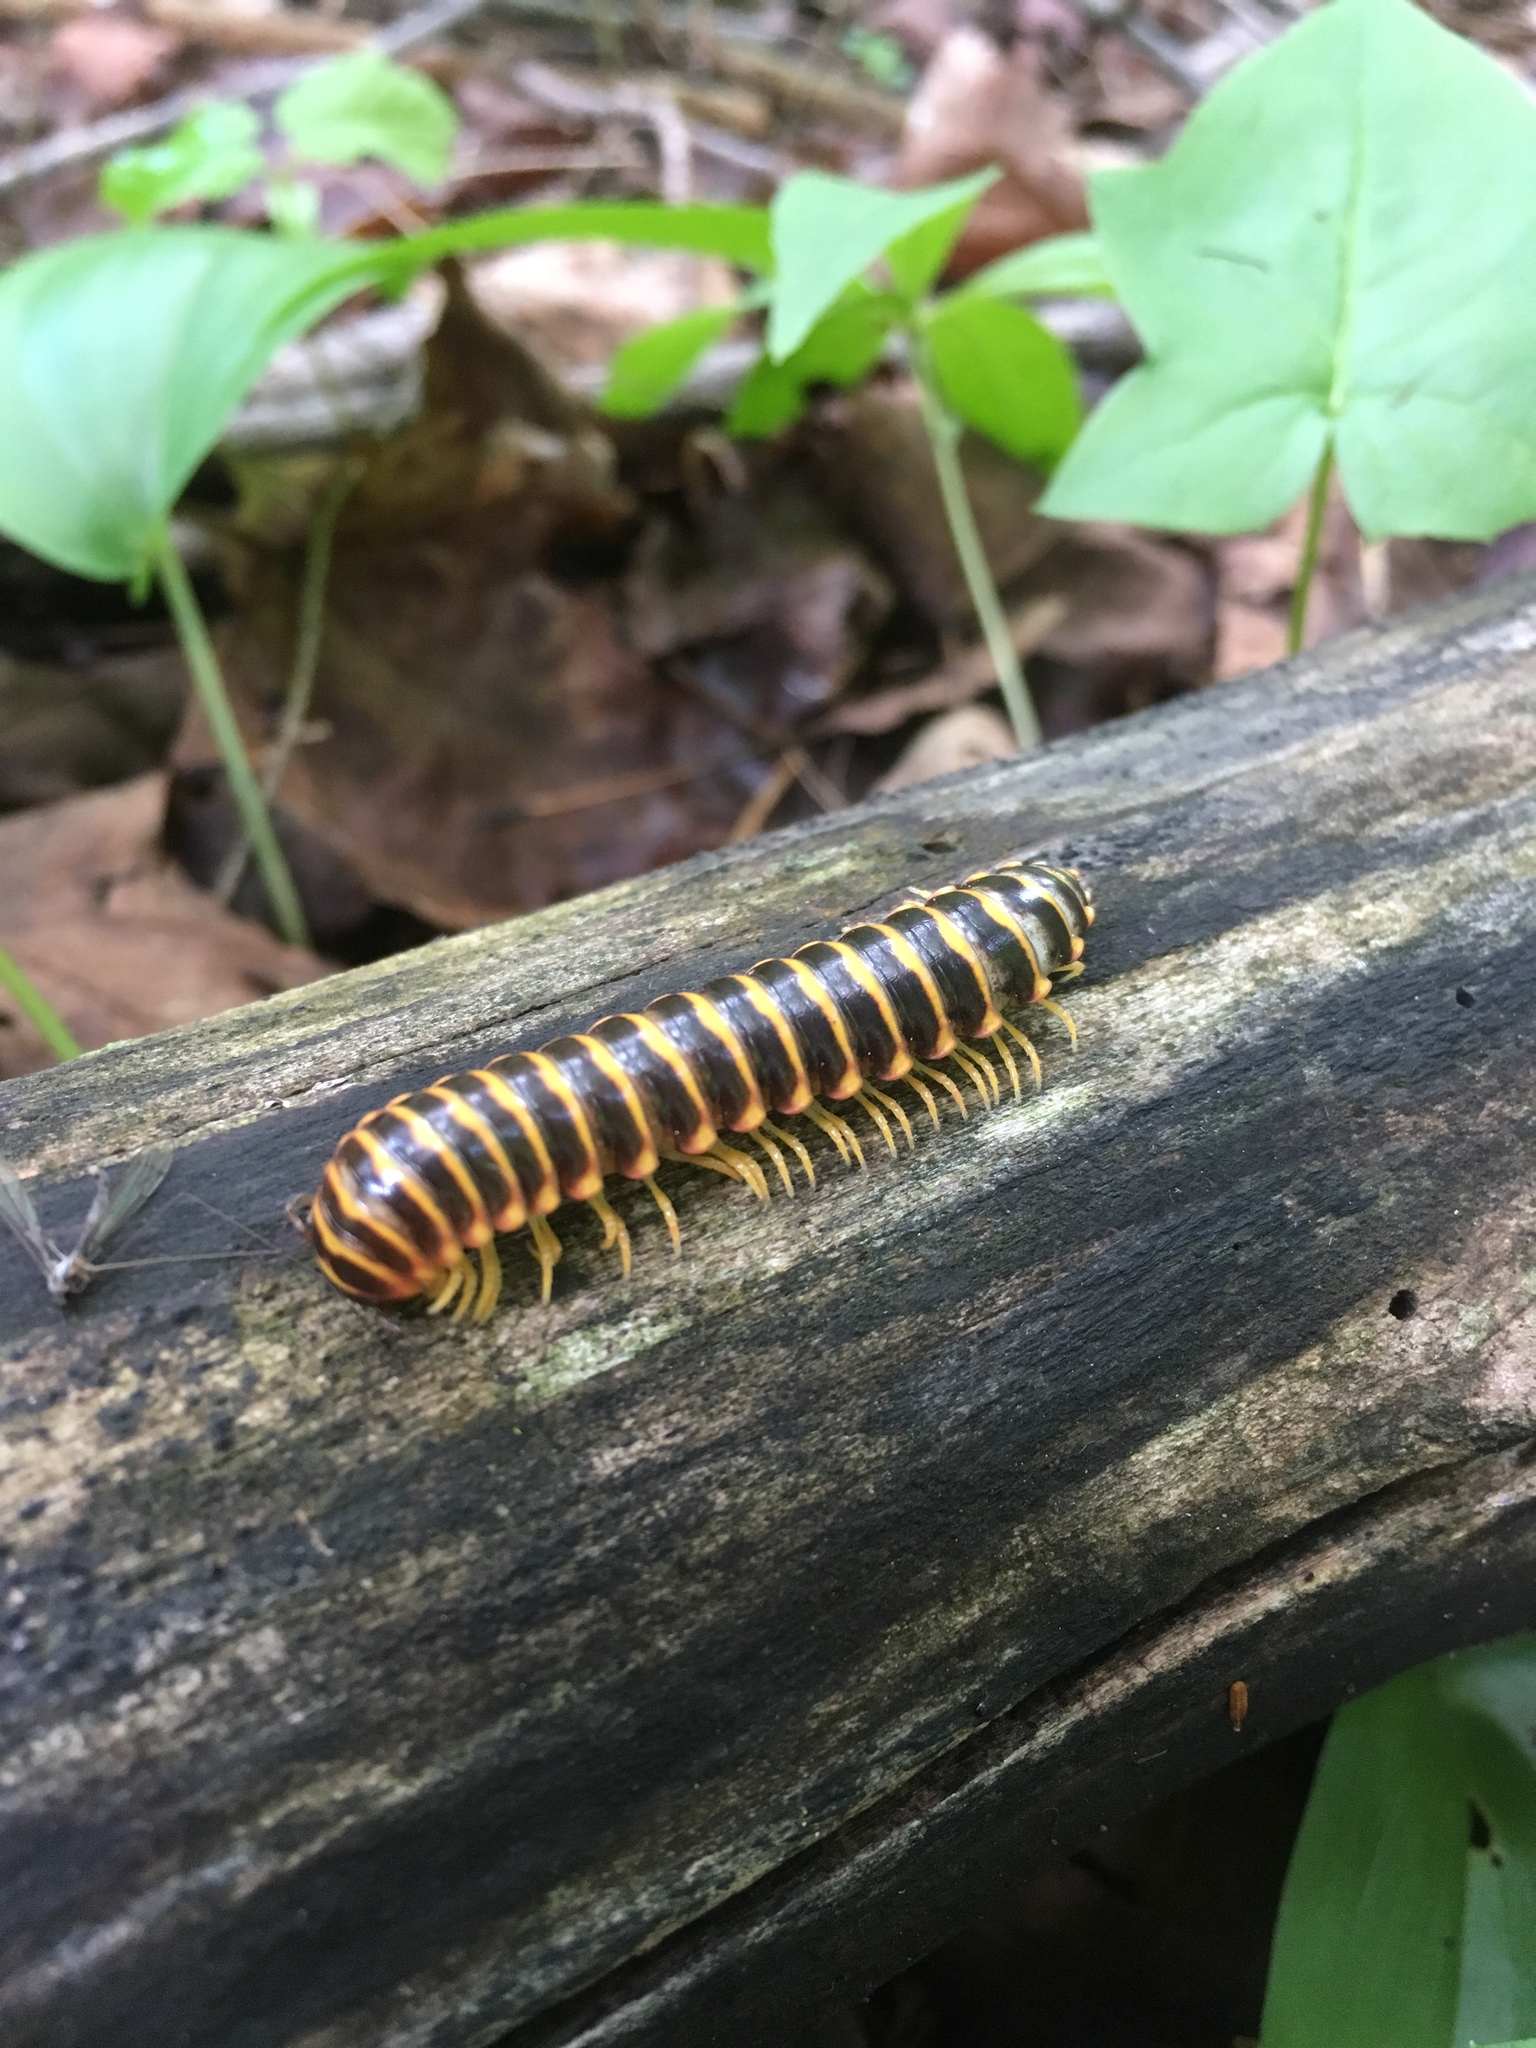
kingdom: Animalia
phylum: Arthropoda
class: Diplopoda
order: Polydesmida
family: Xystodesmidae
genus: Apheloria
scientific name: Apheloria virginiensis
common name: Black-and-gold flat millipede
